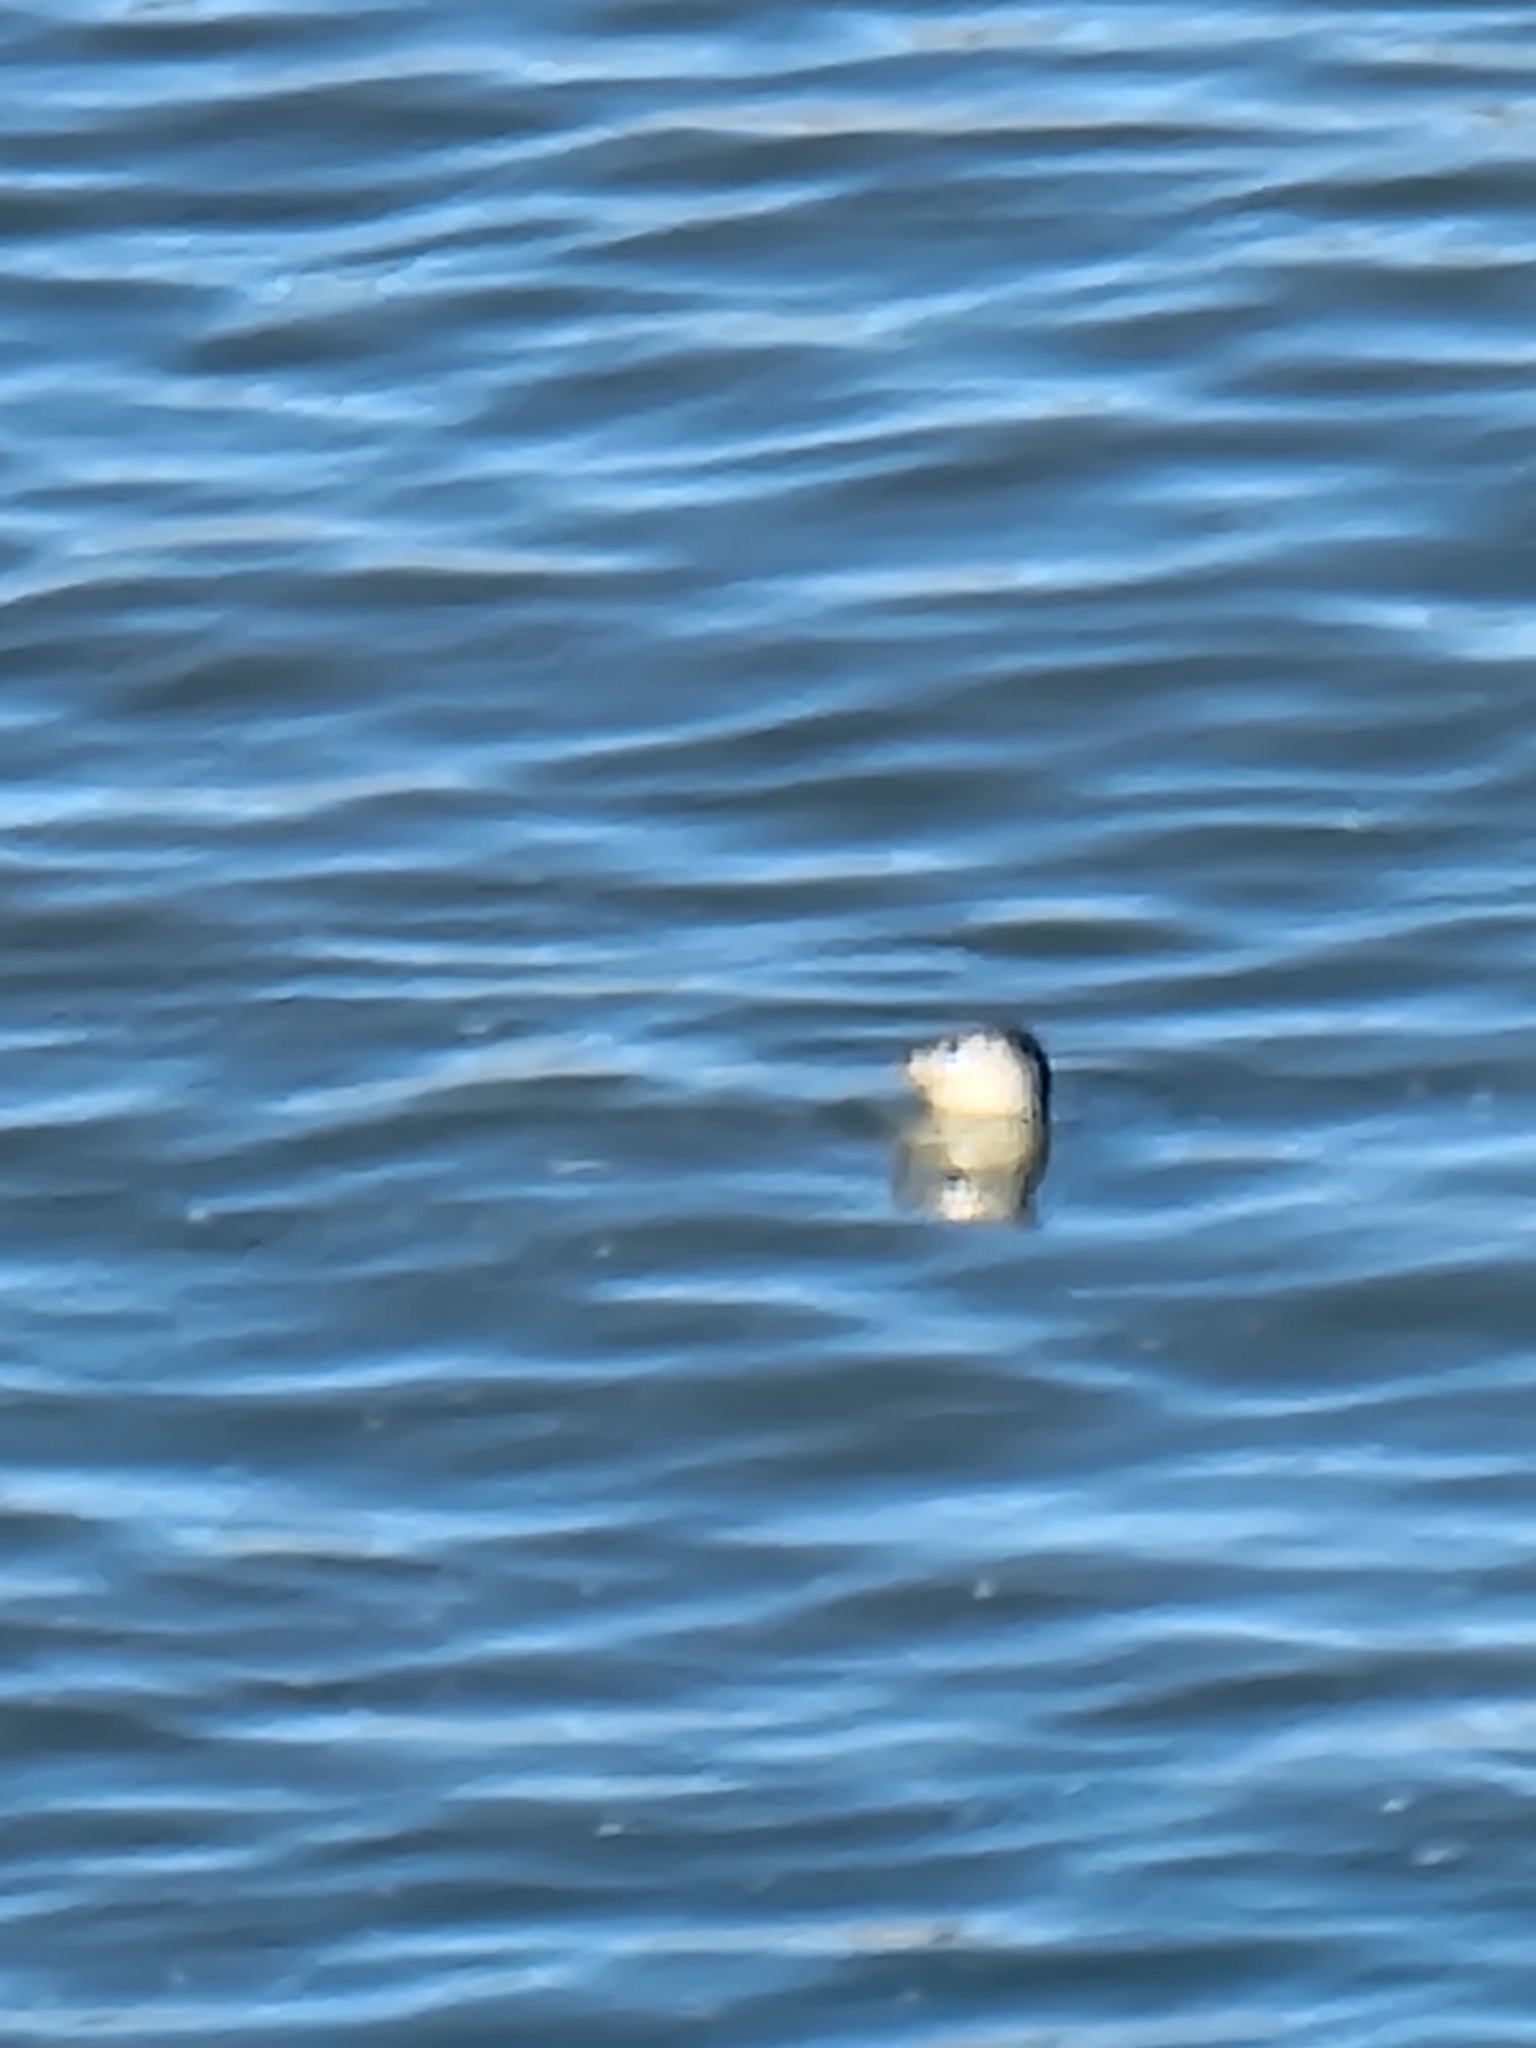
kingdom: Animalia
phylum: Chordata
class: Mammalia
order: Carnivora
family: Phocidae
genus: Mirounga
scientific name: Mirounga angustirostris
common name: Northern elephant seal
